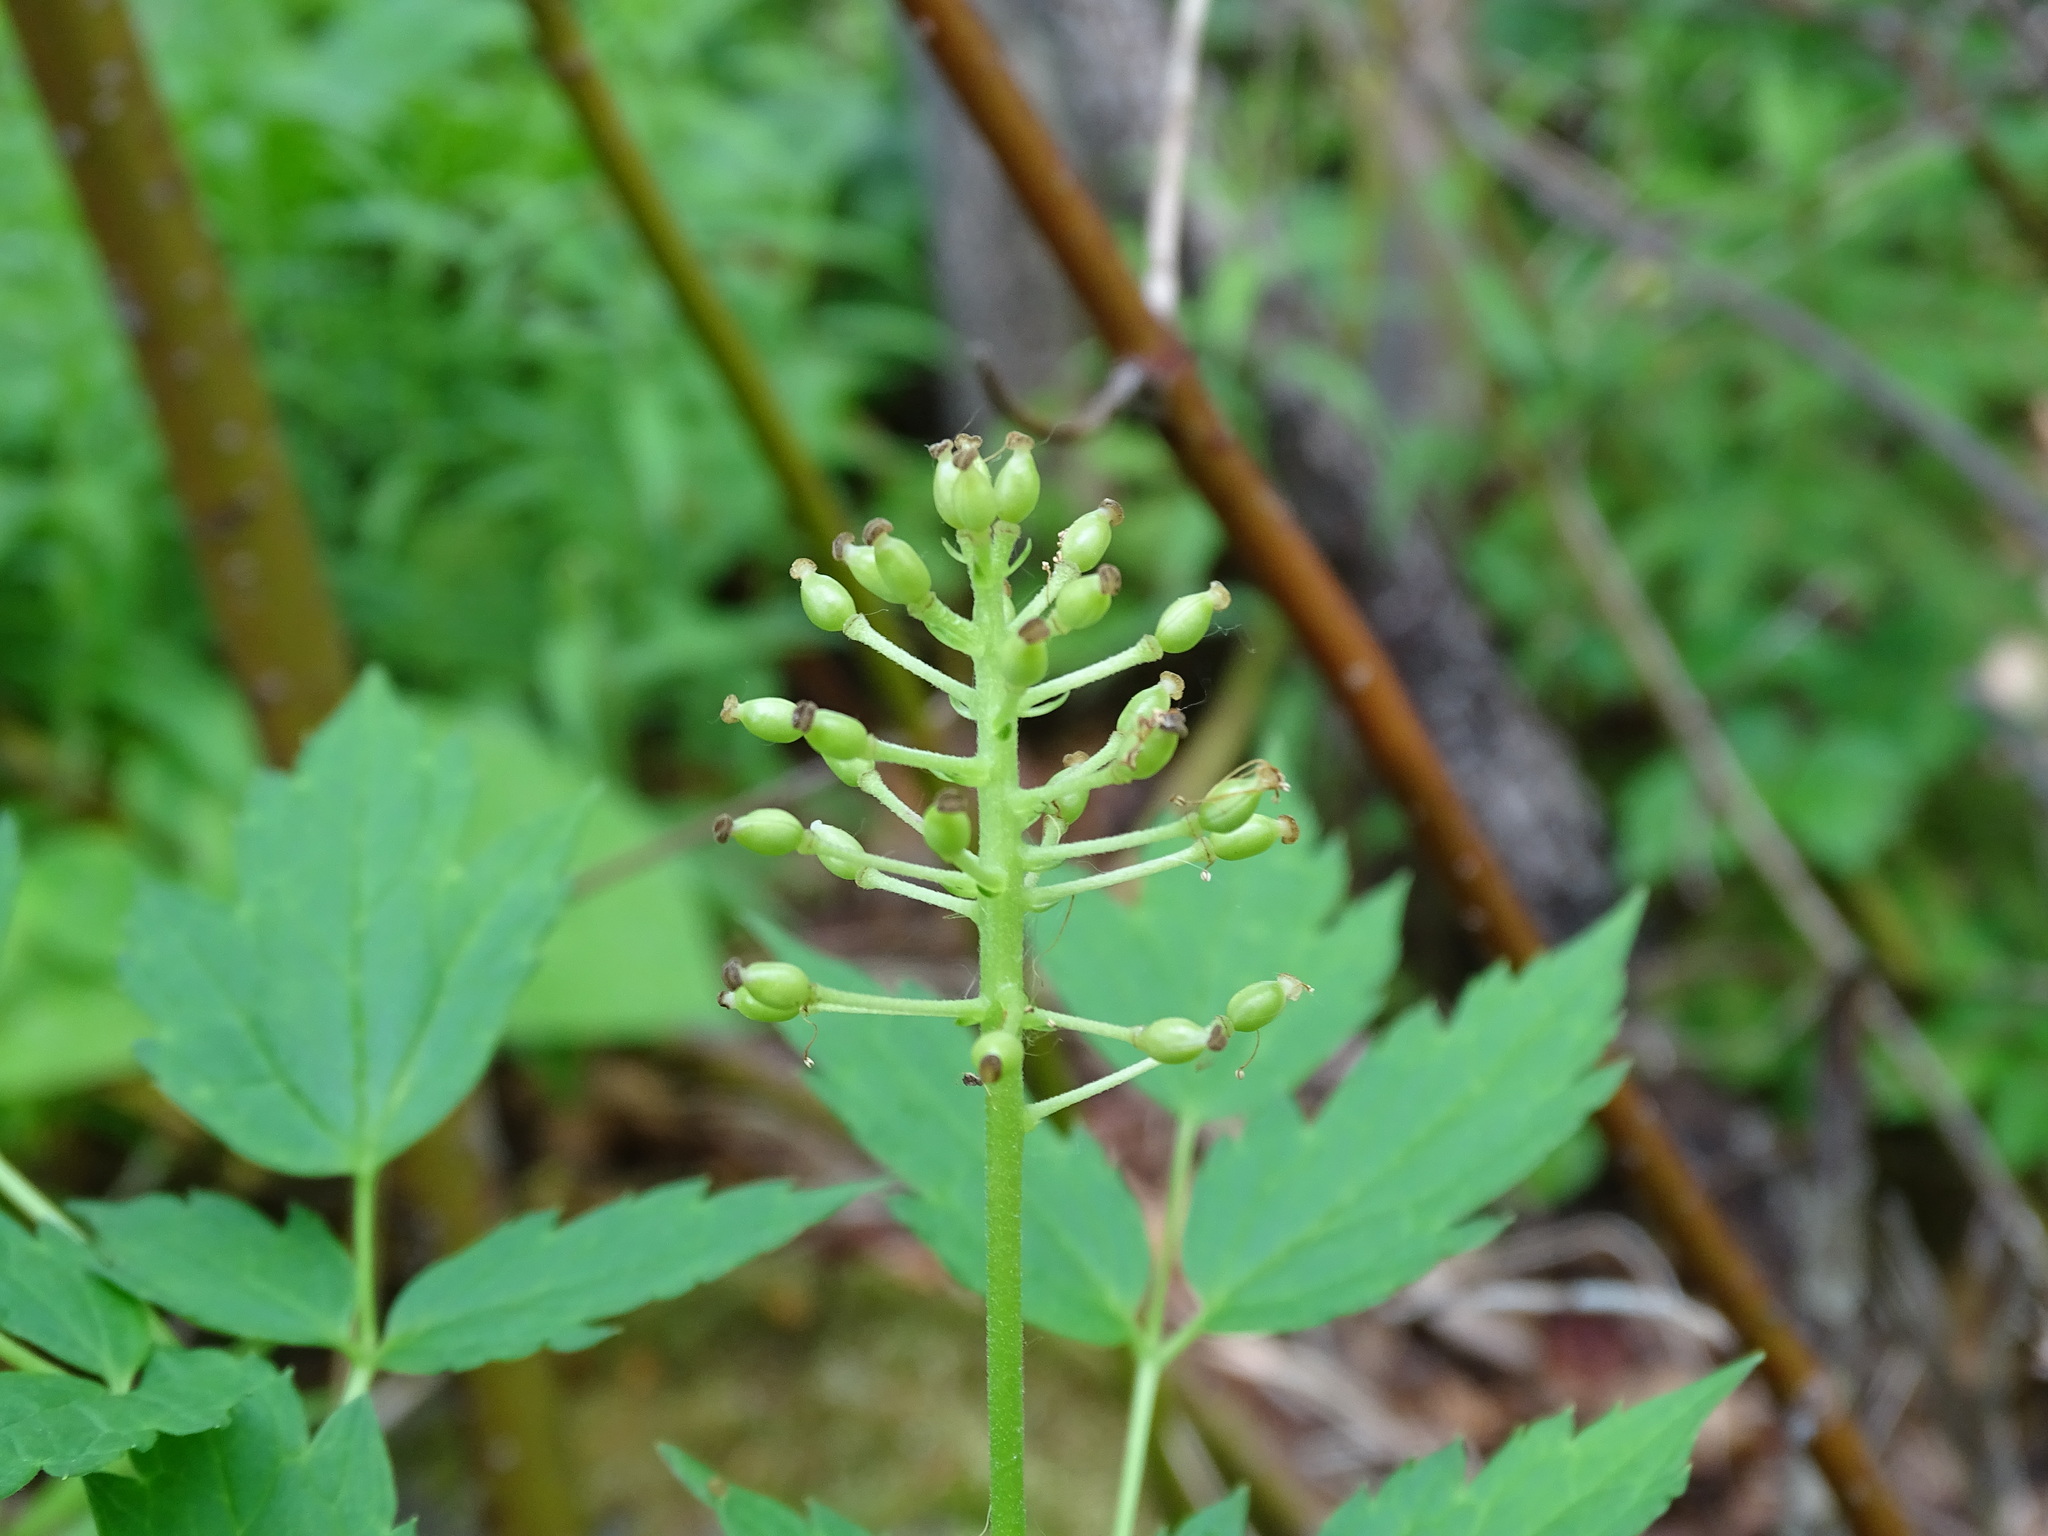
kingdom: Plantae
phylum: Tracheophyta
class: Magnoliopsida
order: Ranunculales
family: Ranunculaceae
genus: Actaea
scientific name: Actaea rubra
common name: Red baneberry
